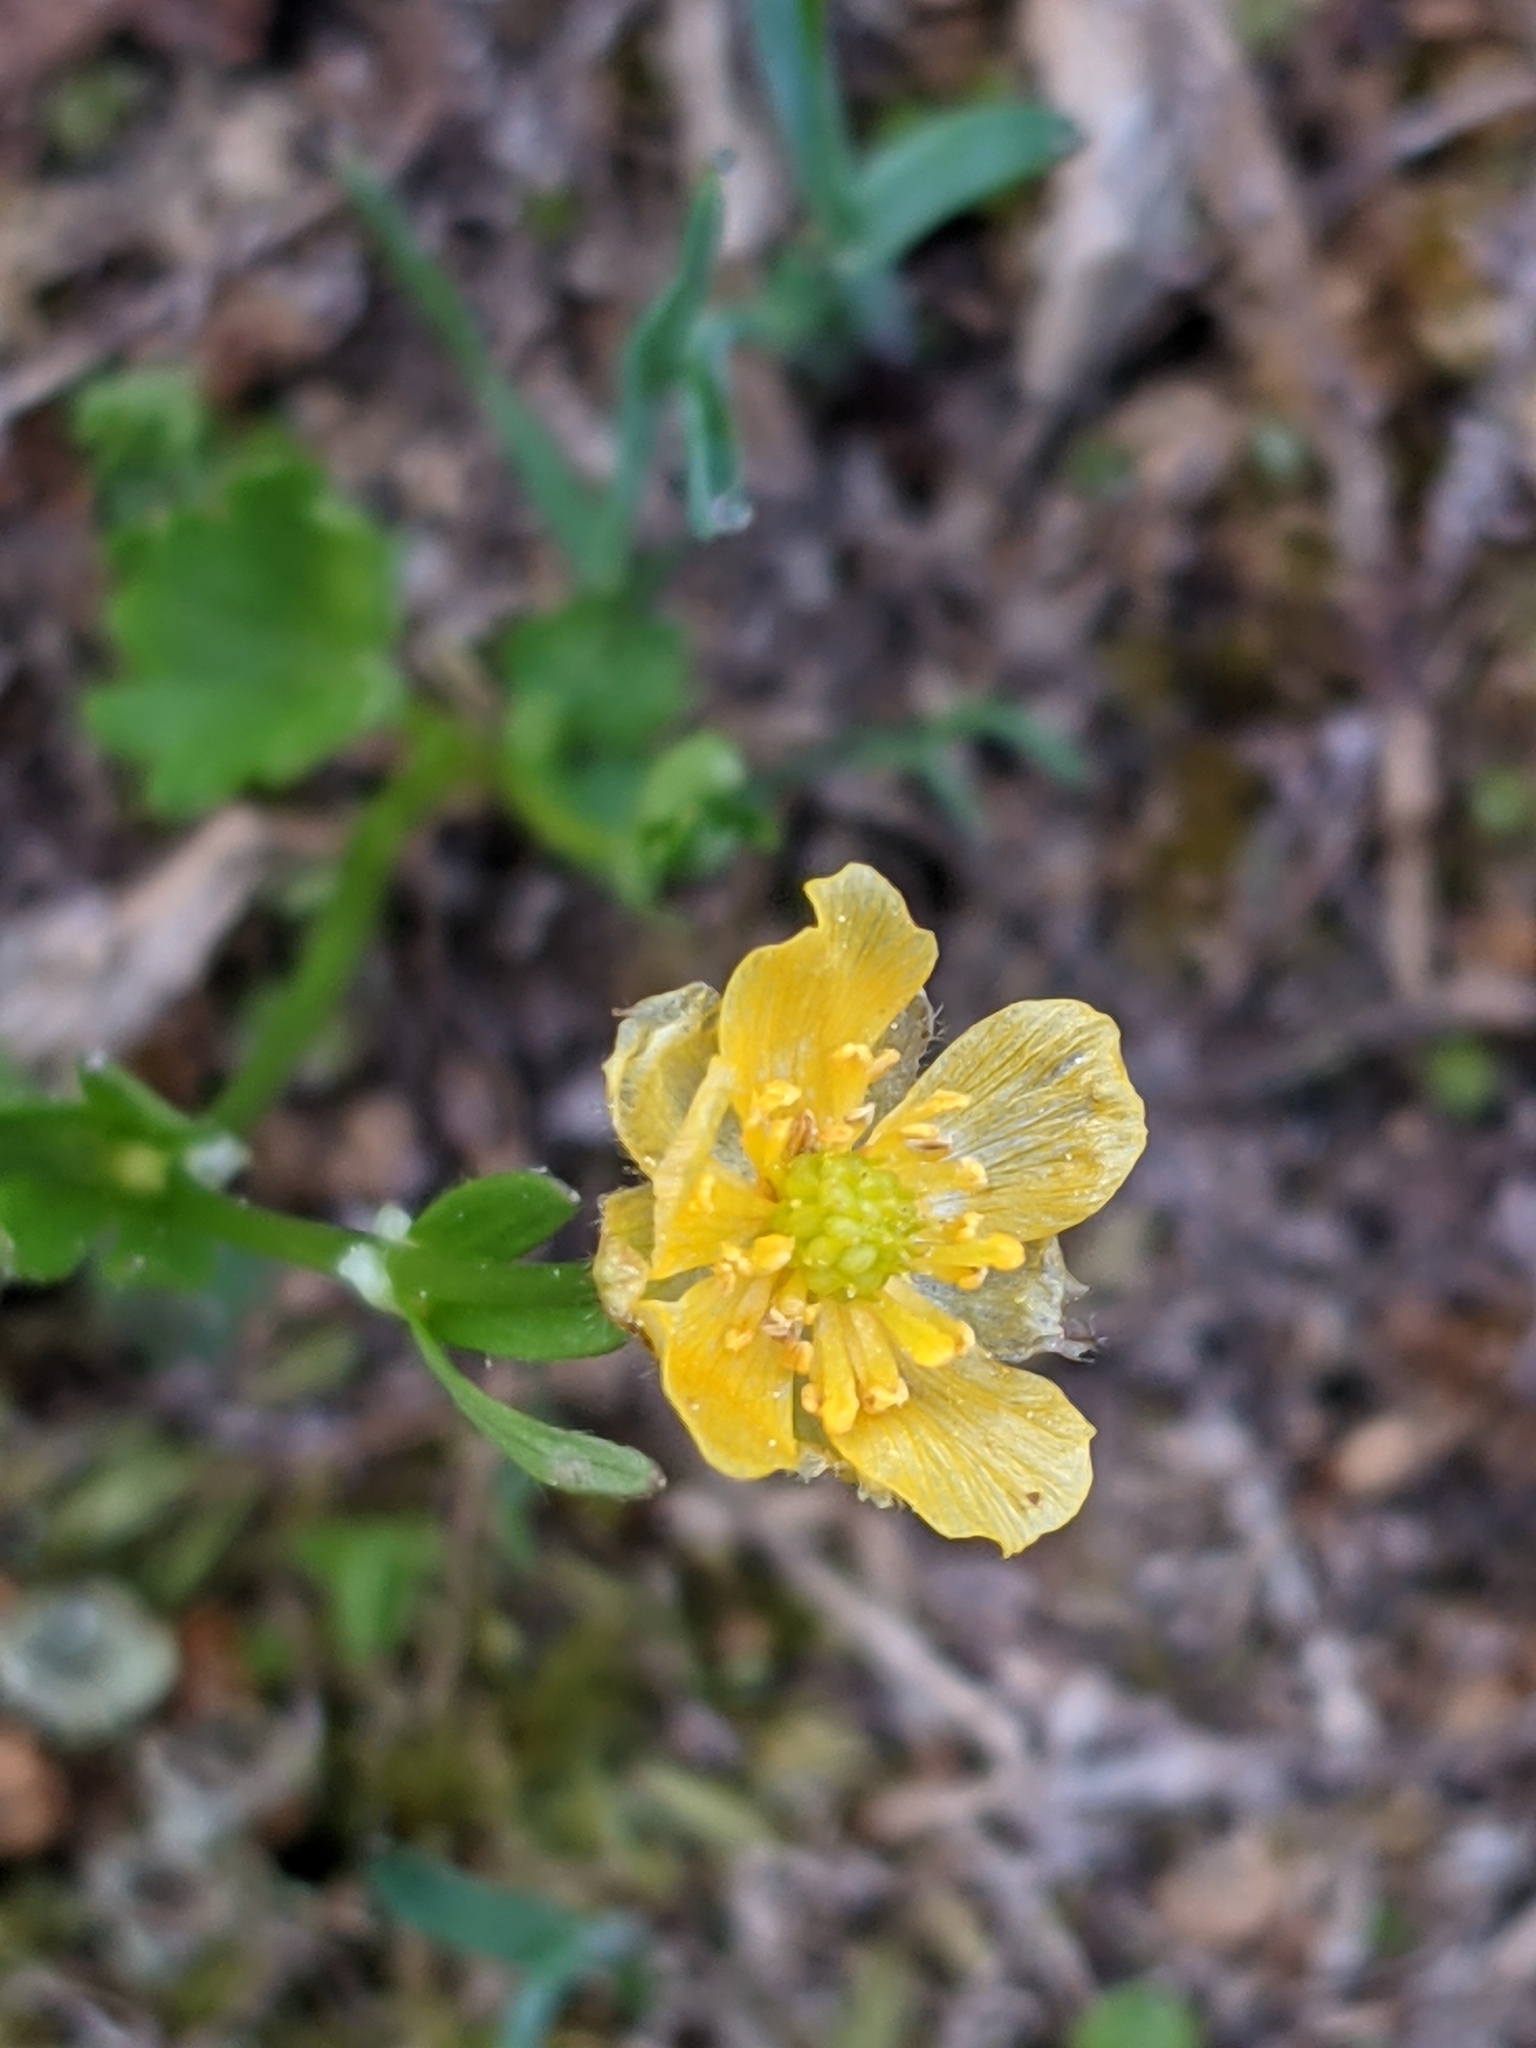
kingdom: Plantae
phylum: Tracheophyta
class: Magnoliopsida
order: Ranunculales
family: Ranunculaceae
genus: Ranunculus
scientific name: Ranunculus eschscholtzii
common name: Eschscholtz's buttercup
